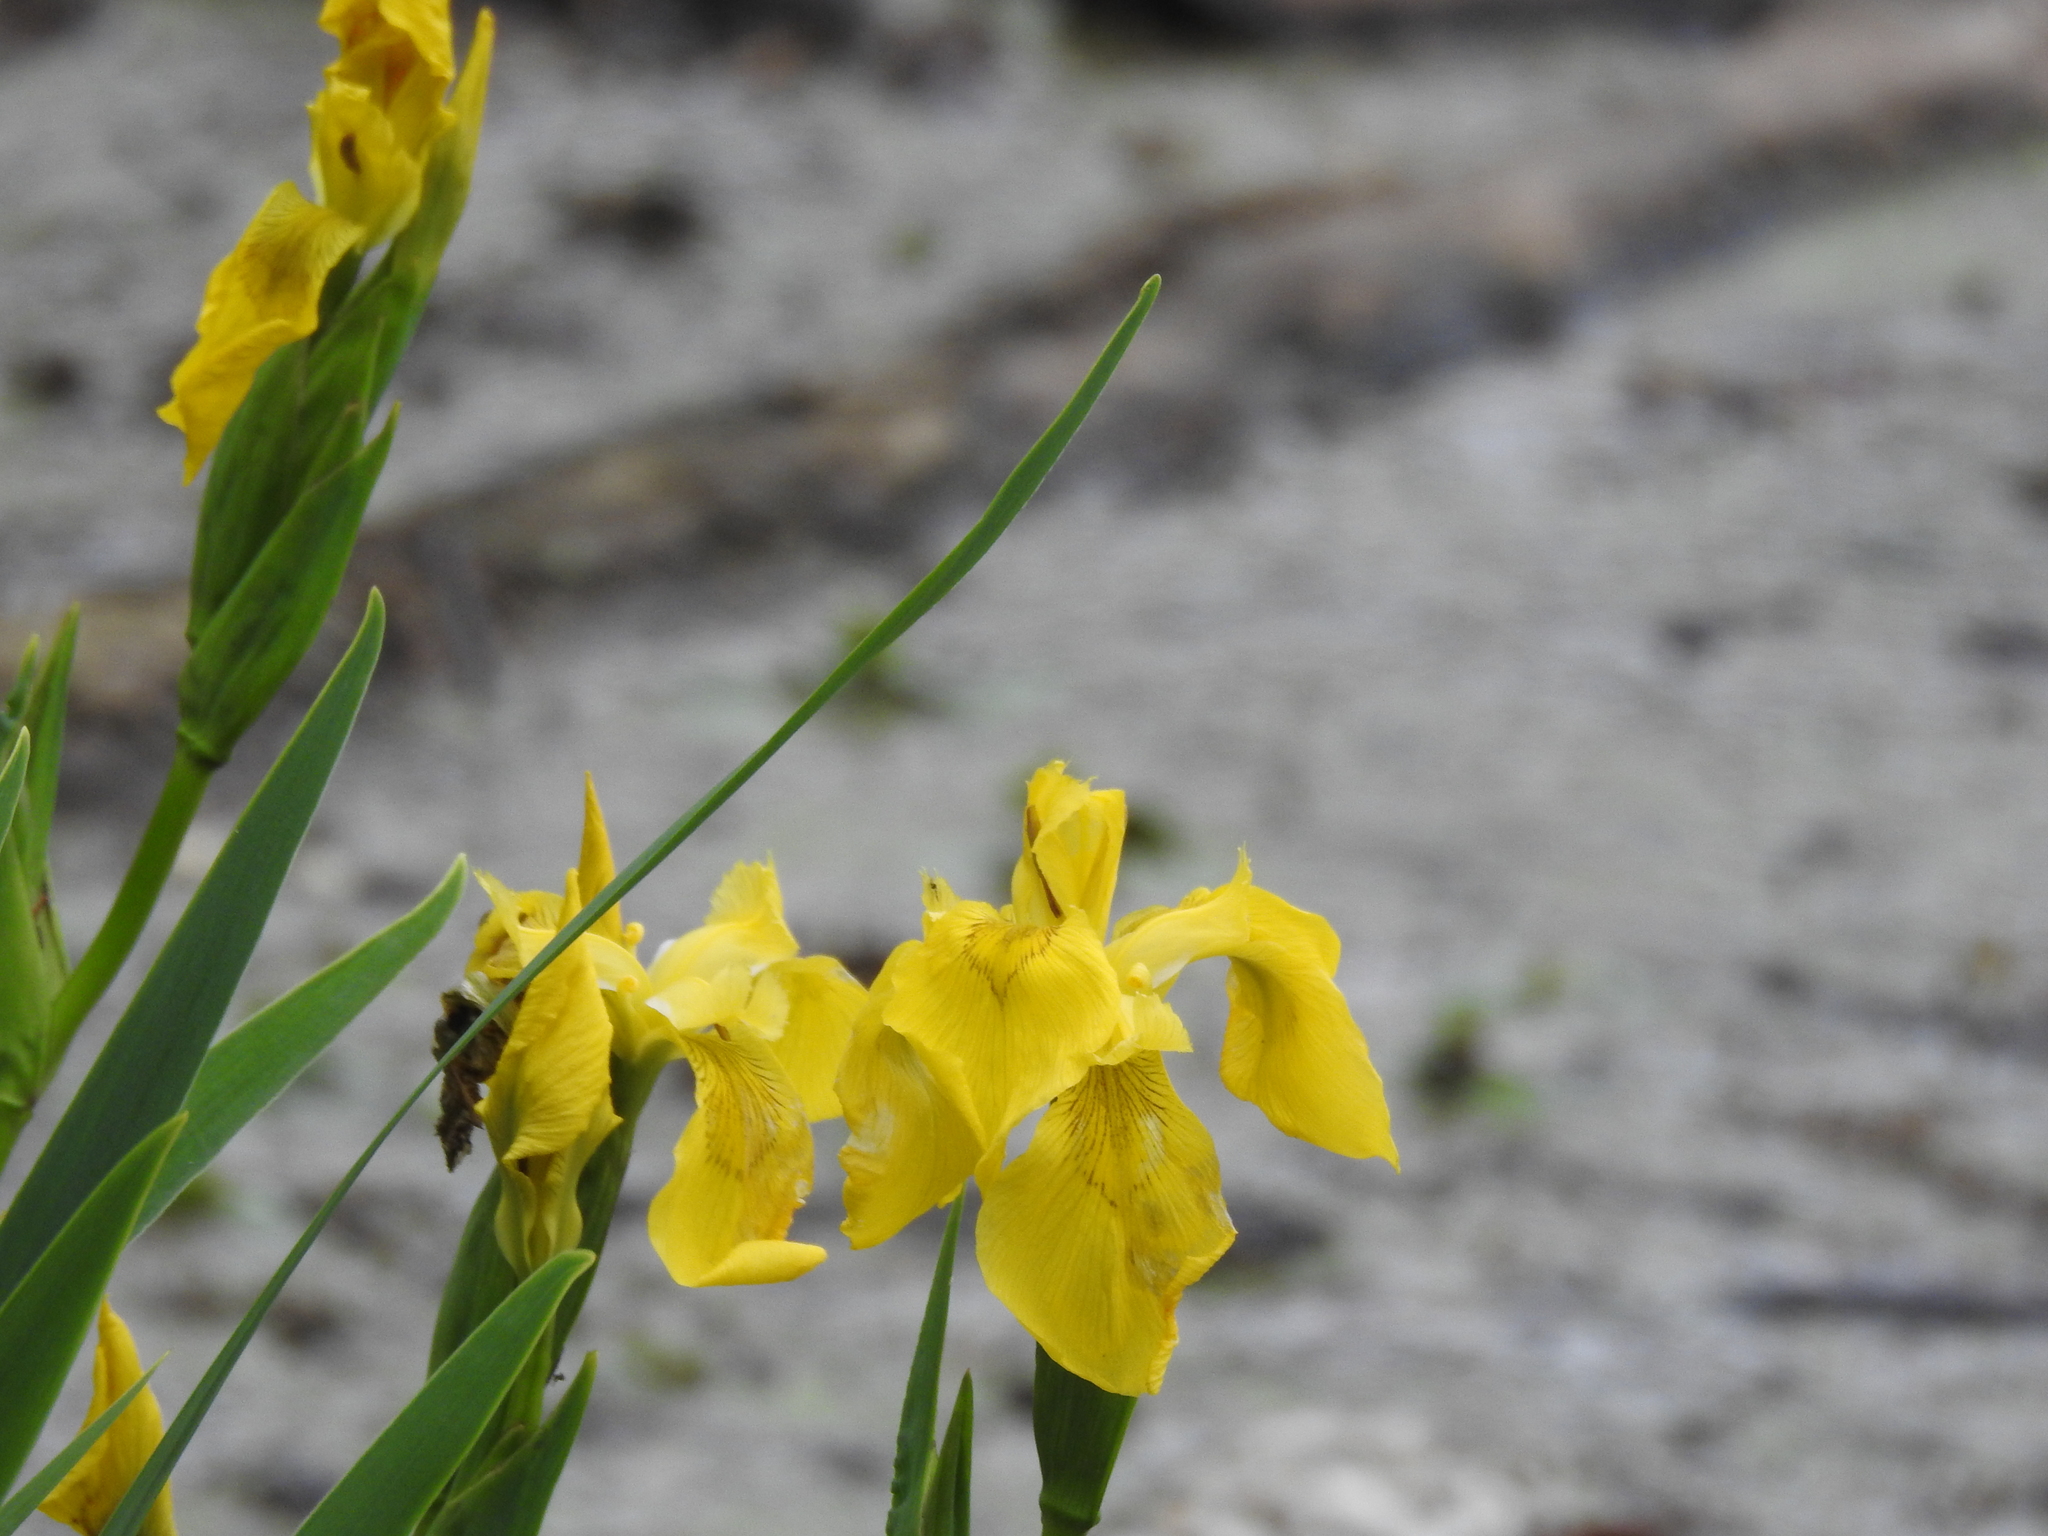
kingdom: Plantae
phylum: Tracheophyta
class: Liliopsida
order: Asparagales
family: Iridaceae
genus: Iris
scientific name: Iris pseudacorus
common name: Yellow flag
